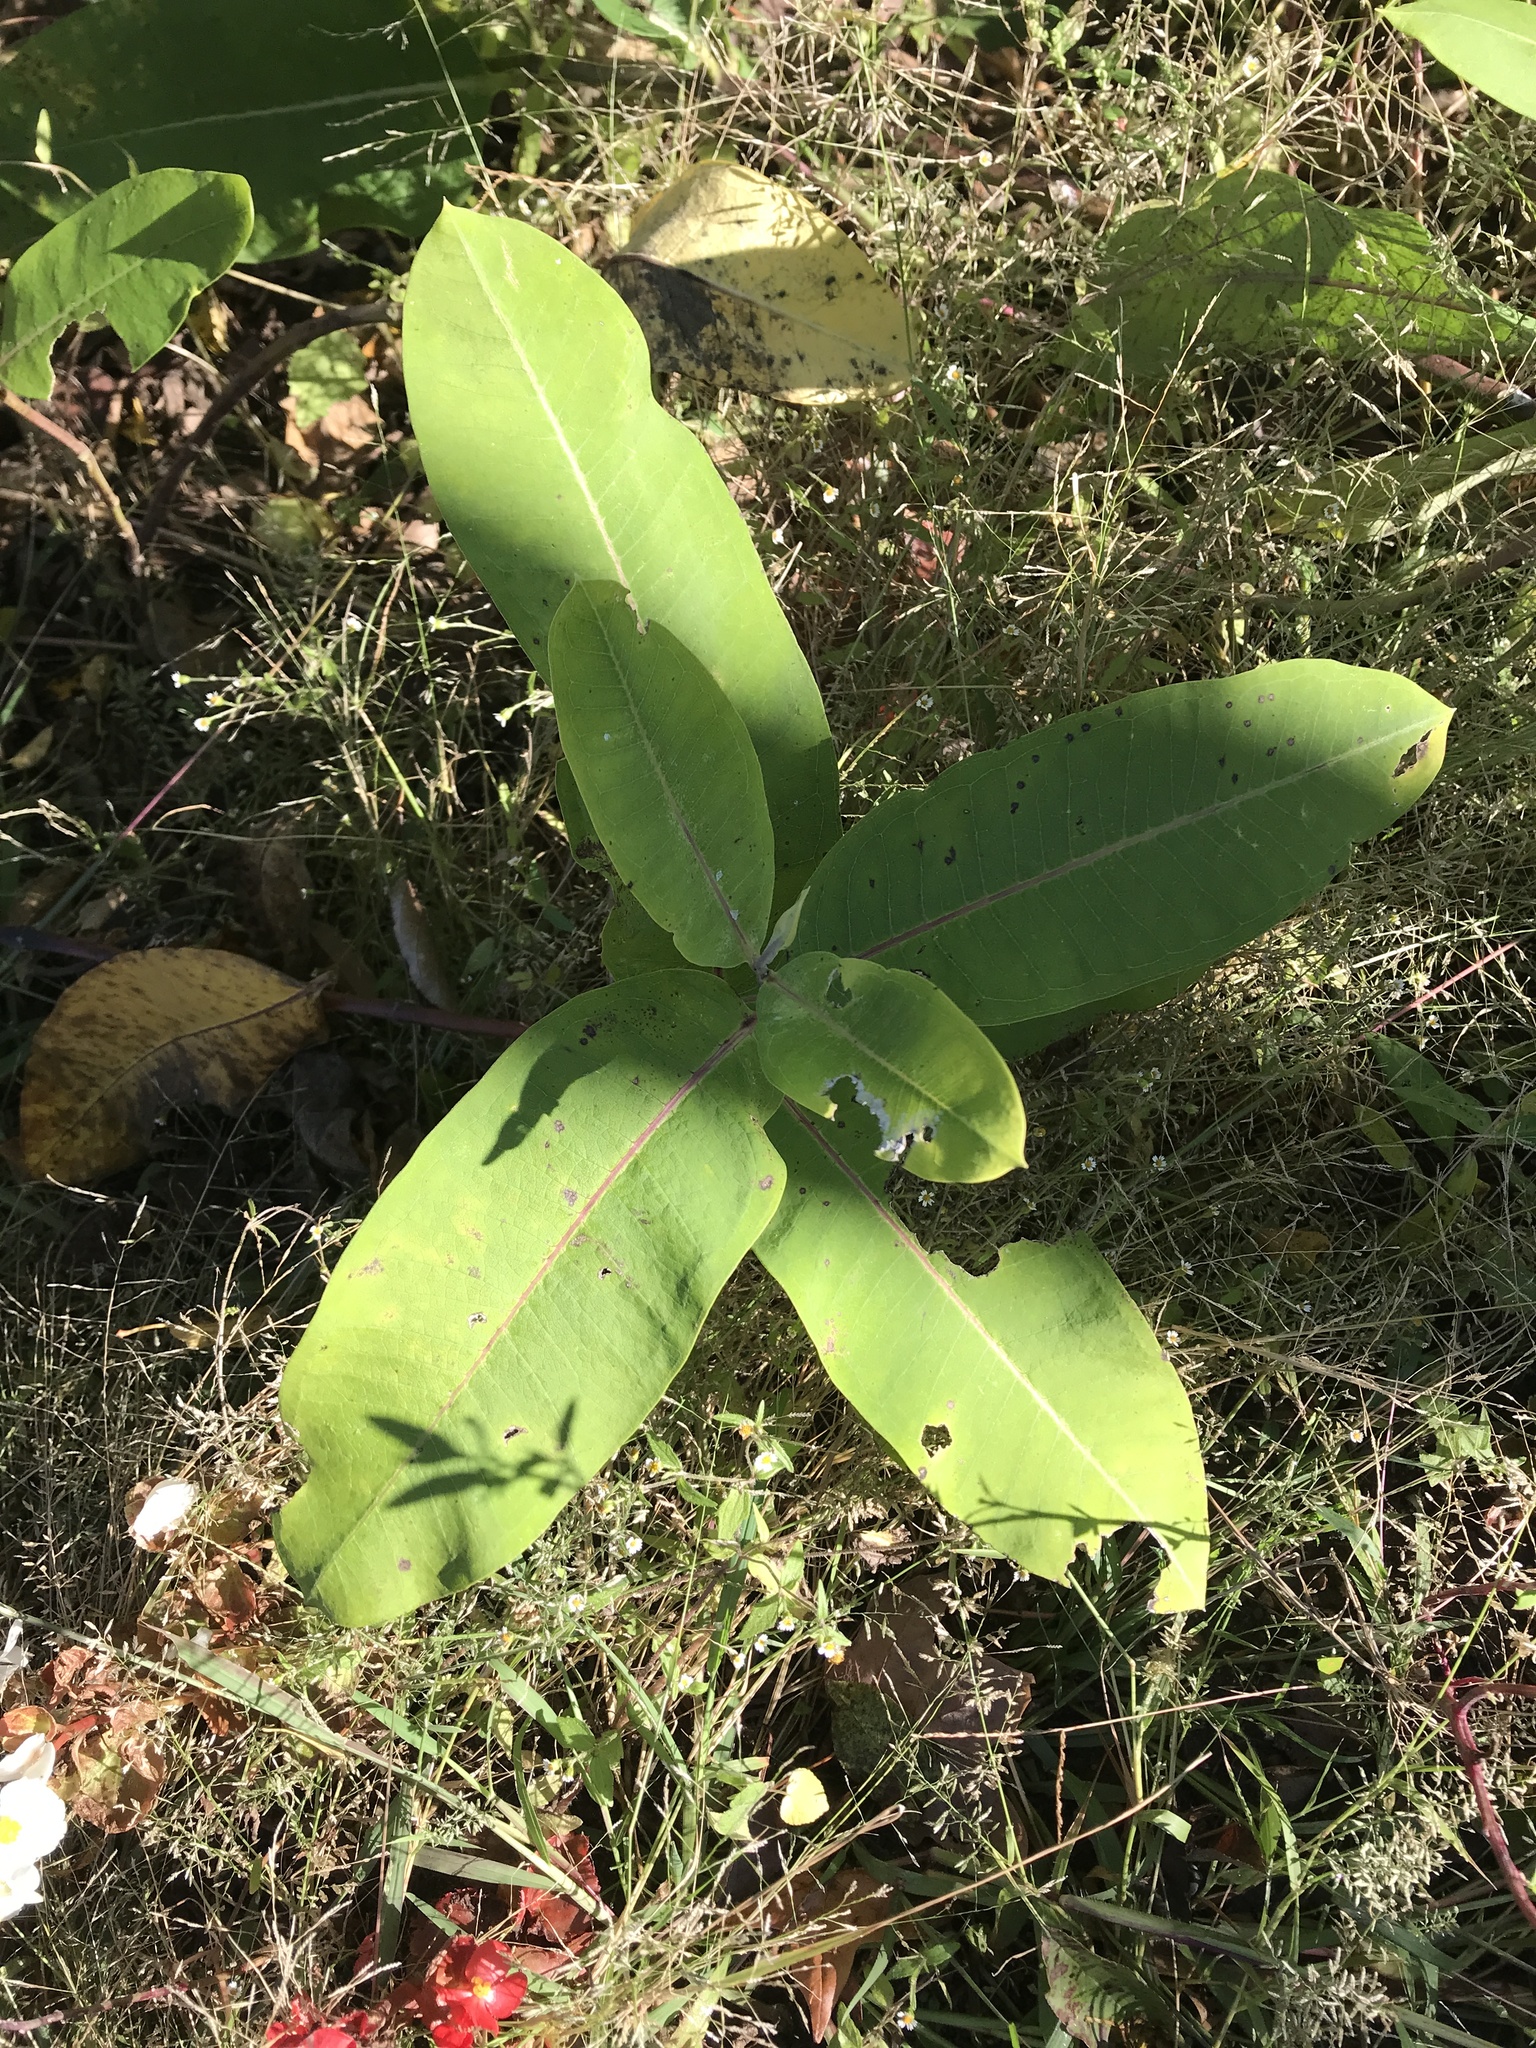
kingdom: Plantae
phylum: Tracheophyta
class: Magnoliopsida
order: Gentianales
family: Apocynaceae
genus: Asclepias
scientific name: Asclepias syriaca
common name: Common milkweed
